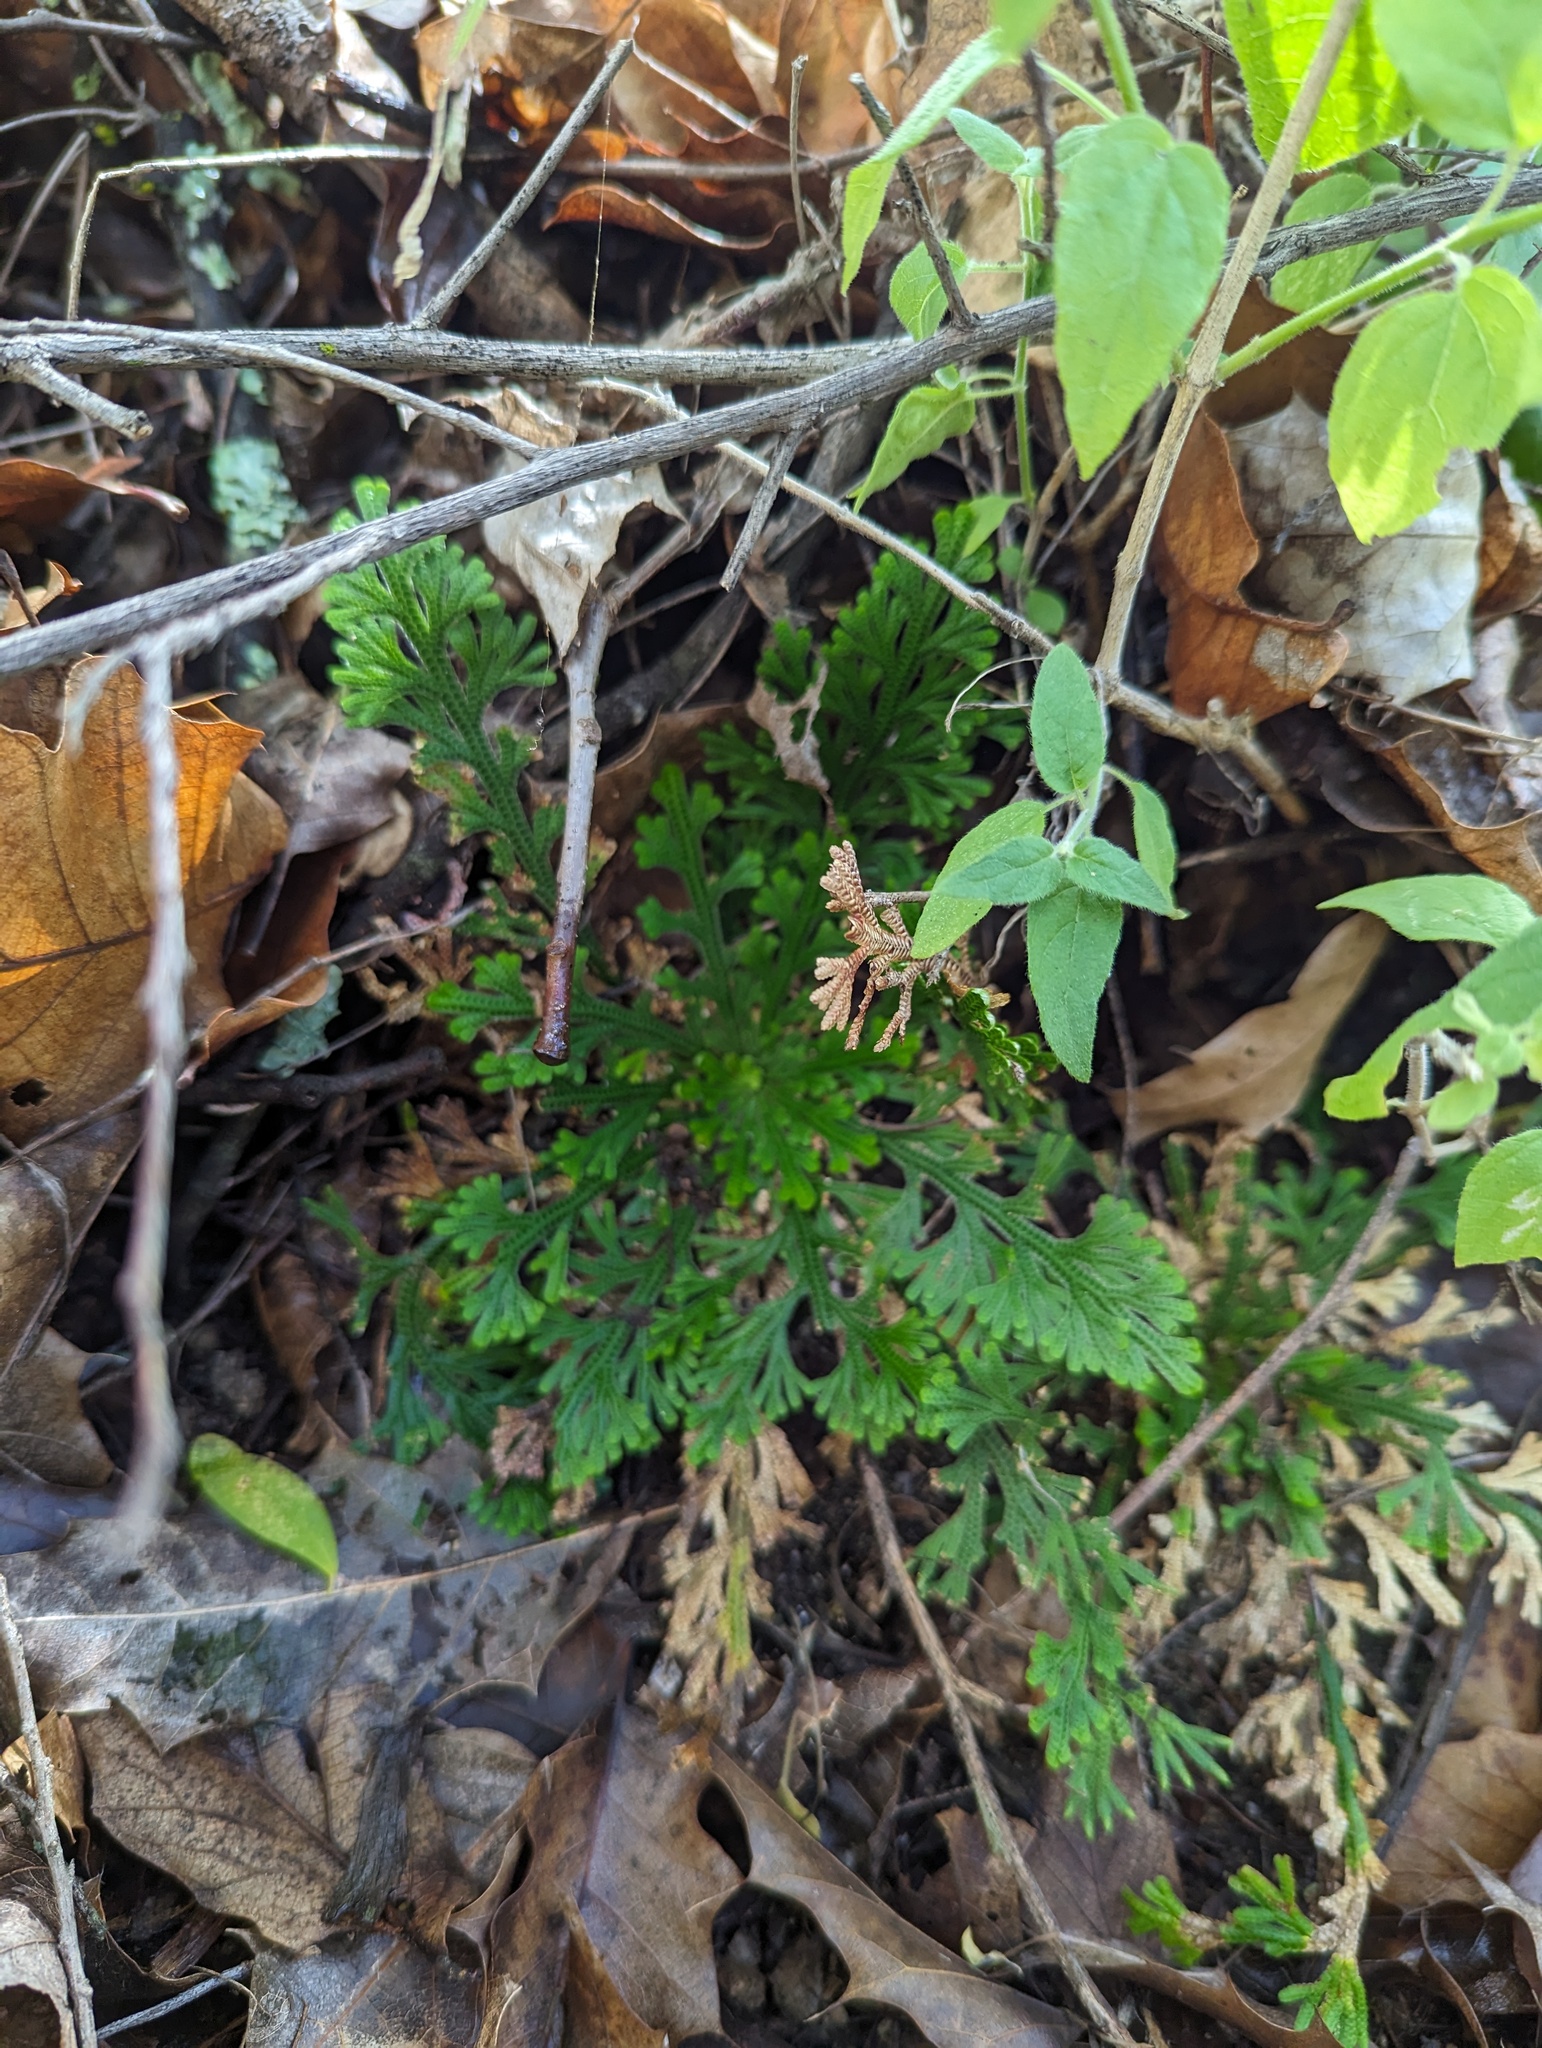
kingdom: Plantae
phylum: Tracheophyta
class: Lycopodiopsida
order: Selaginellales
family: Selaginellaceae
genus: Selaginella
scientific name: Selaginella lepidophylla
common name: Rose-of-jericho
